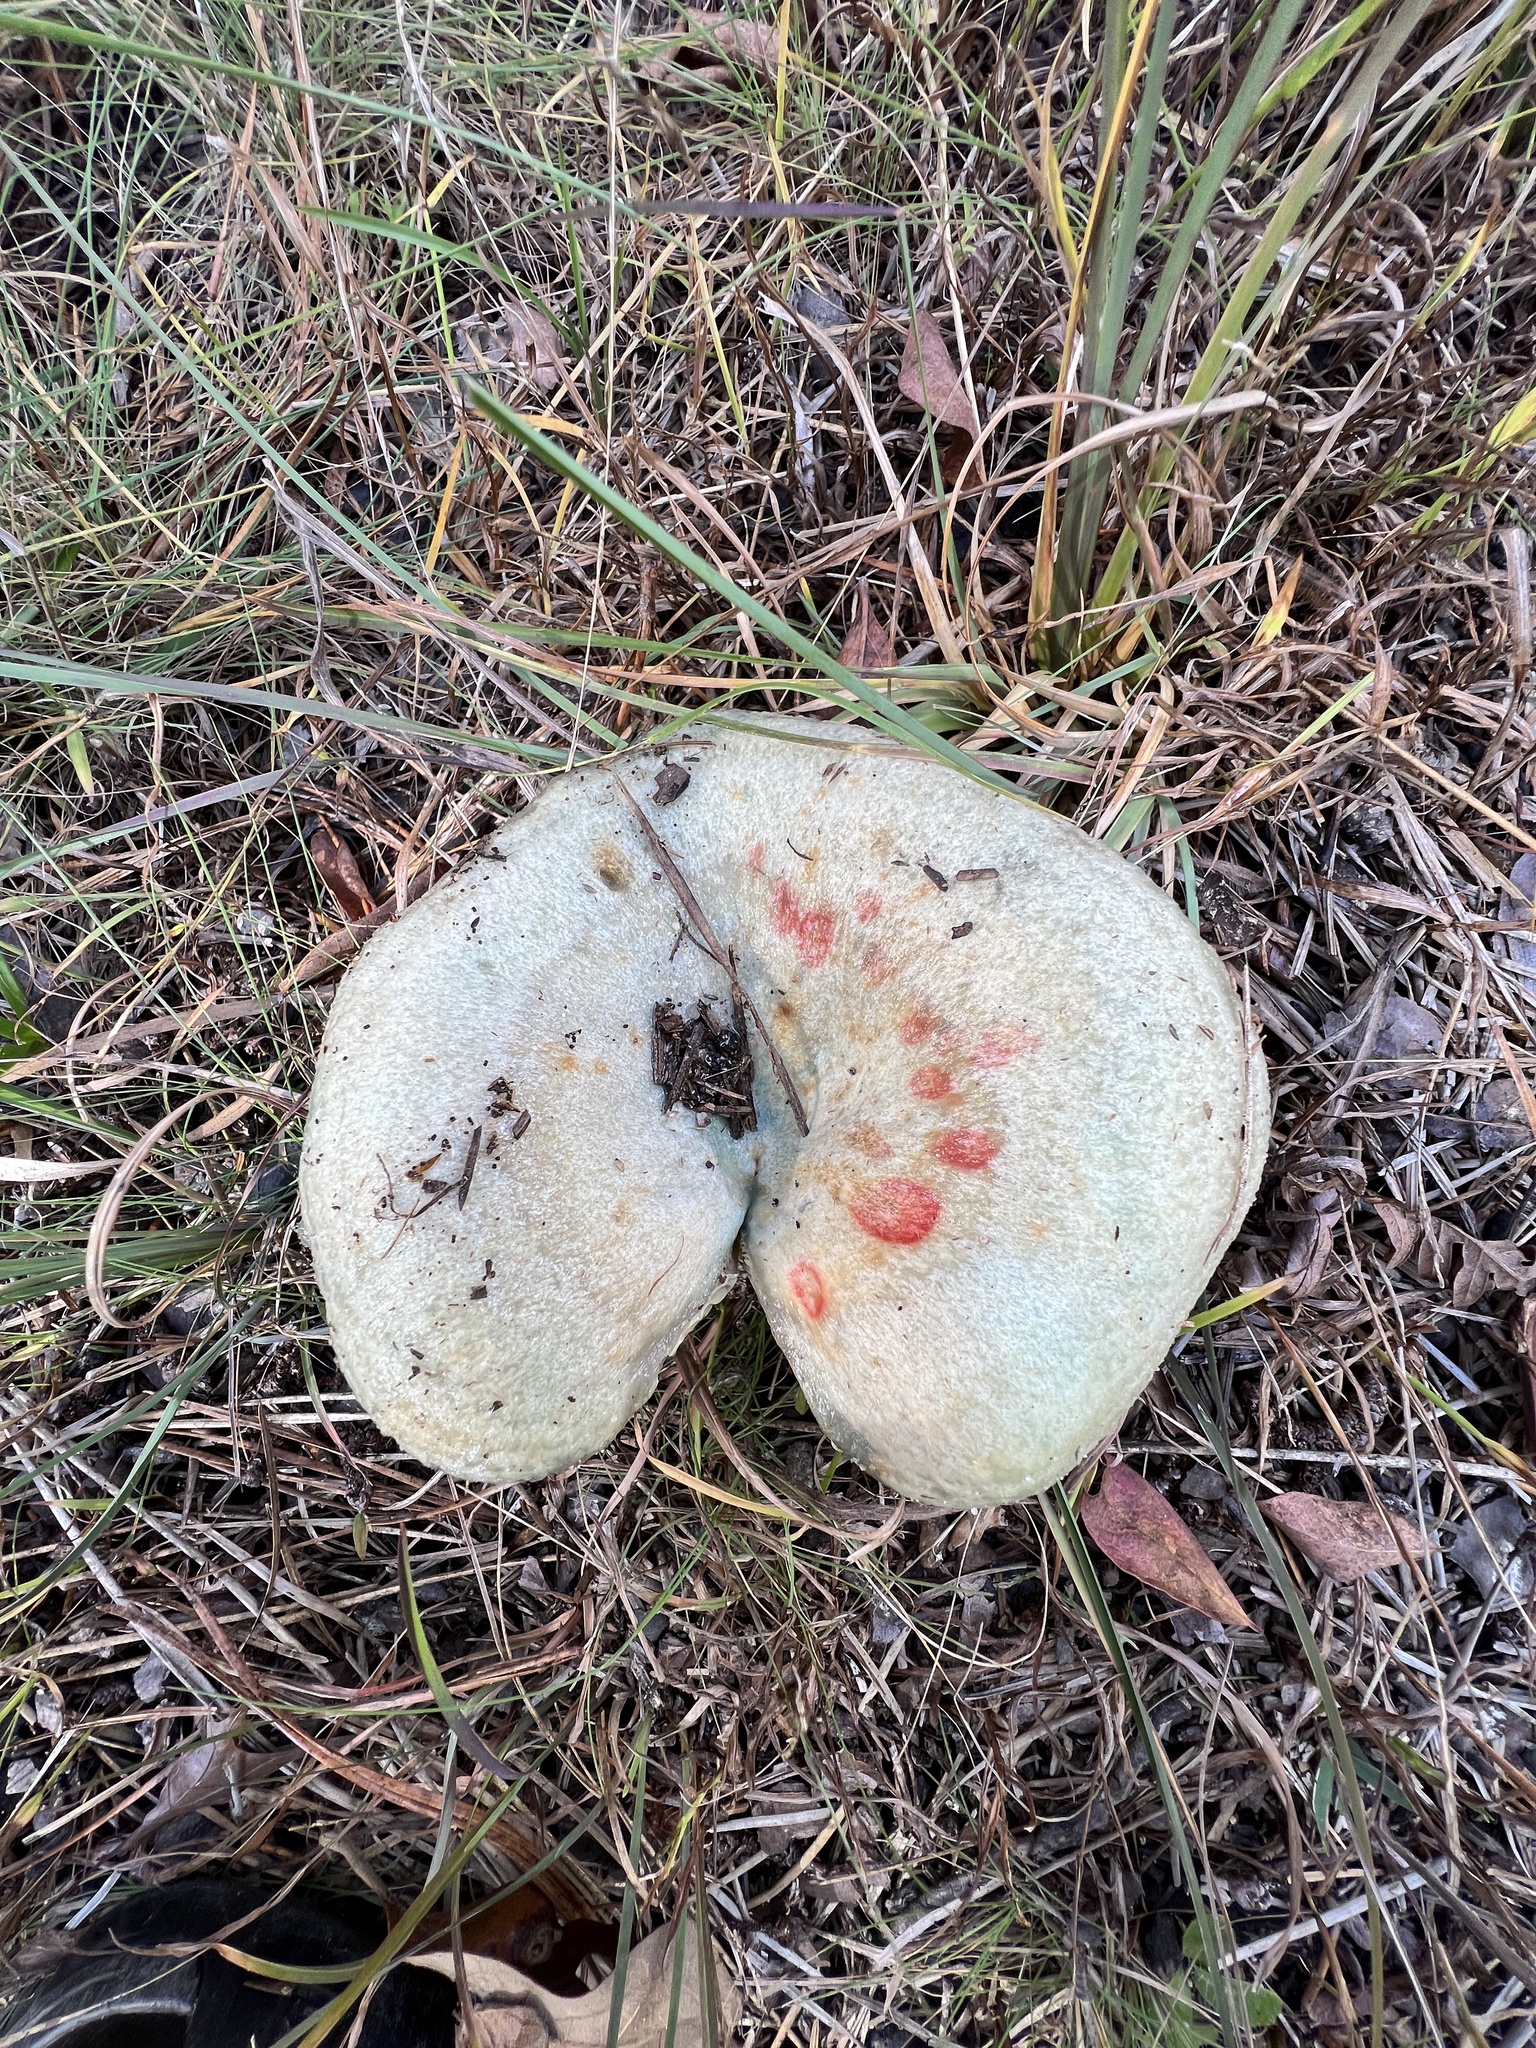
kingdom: Fungi
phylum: Basidiomycota
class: Agaricomycetes
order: Russulales
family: Russulaceae
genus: Lactarius
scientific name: Lactarius paradoxus
